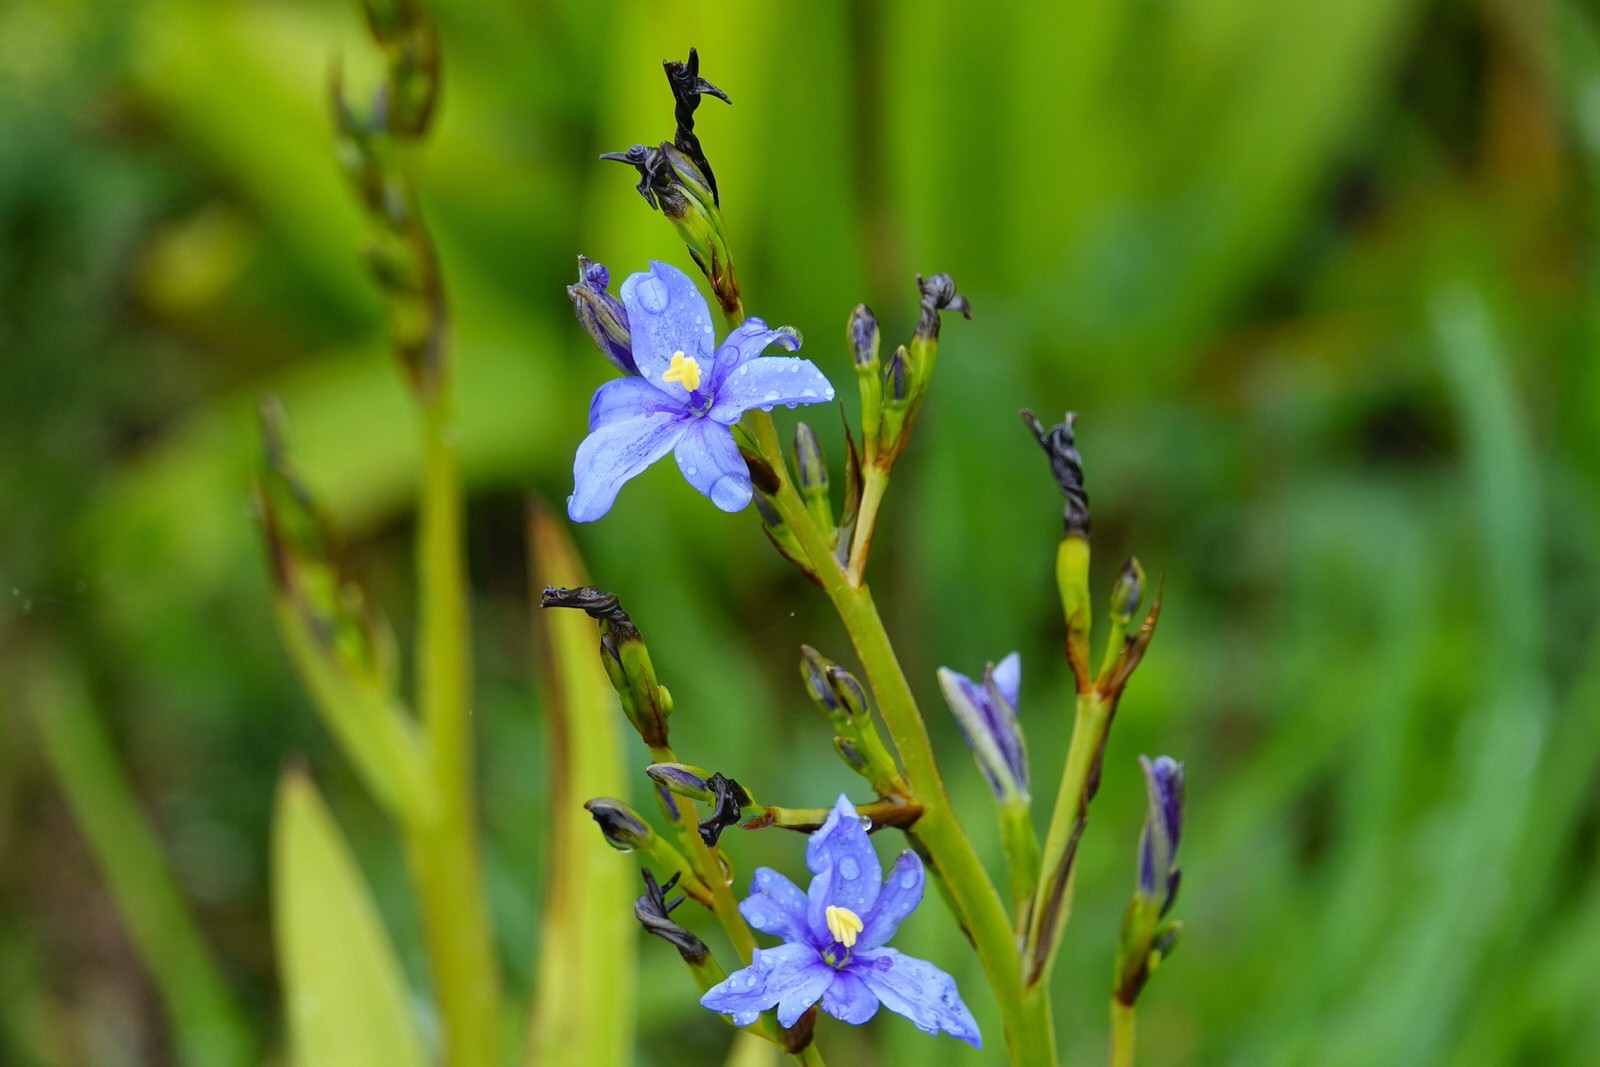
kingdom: Plantae
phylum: Tracheophyta
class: Liliopsida
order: Asparagales
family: Iridaceae
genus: Aristea
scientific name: Aristea ecklonii
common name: Blue corn-lily
